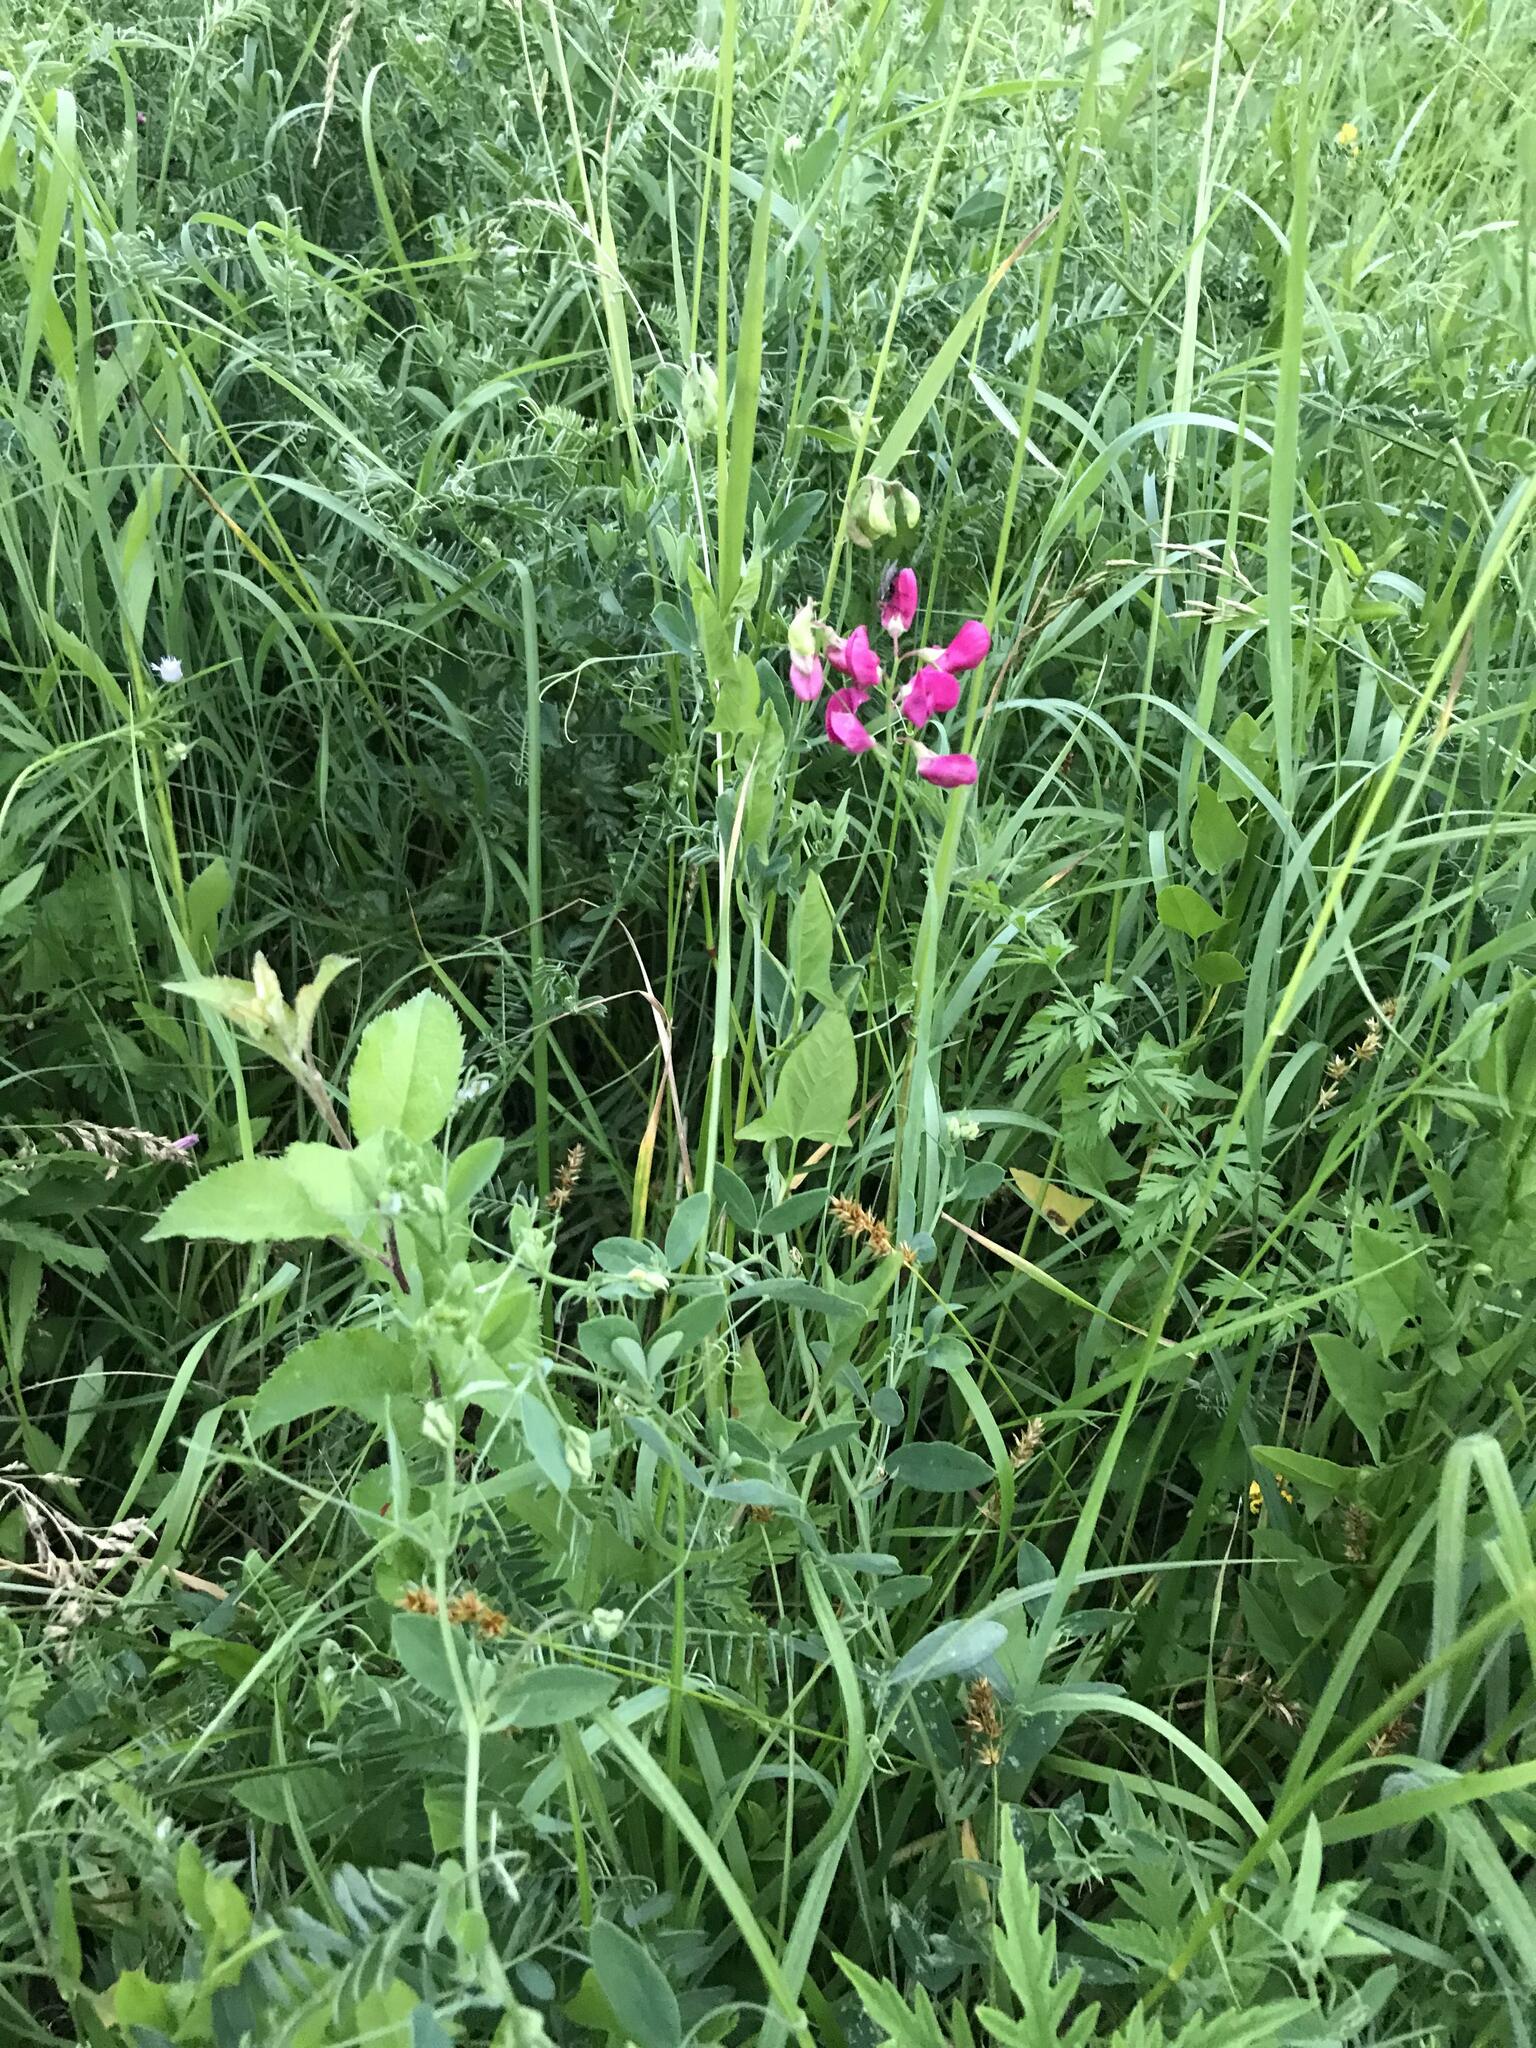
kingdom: Plantae
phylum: Tracheophyta
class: Magnoliopsida
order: Fabales
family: Fabaceae
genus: Lathyrus
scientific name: Lathyrus tuberosus
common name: Tuberous pea
